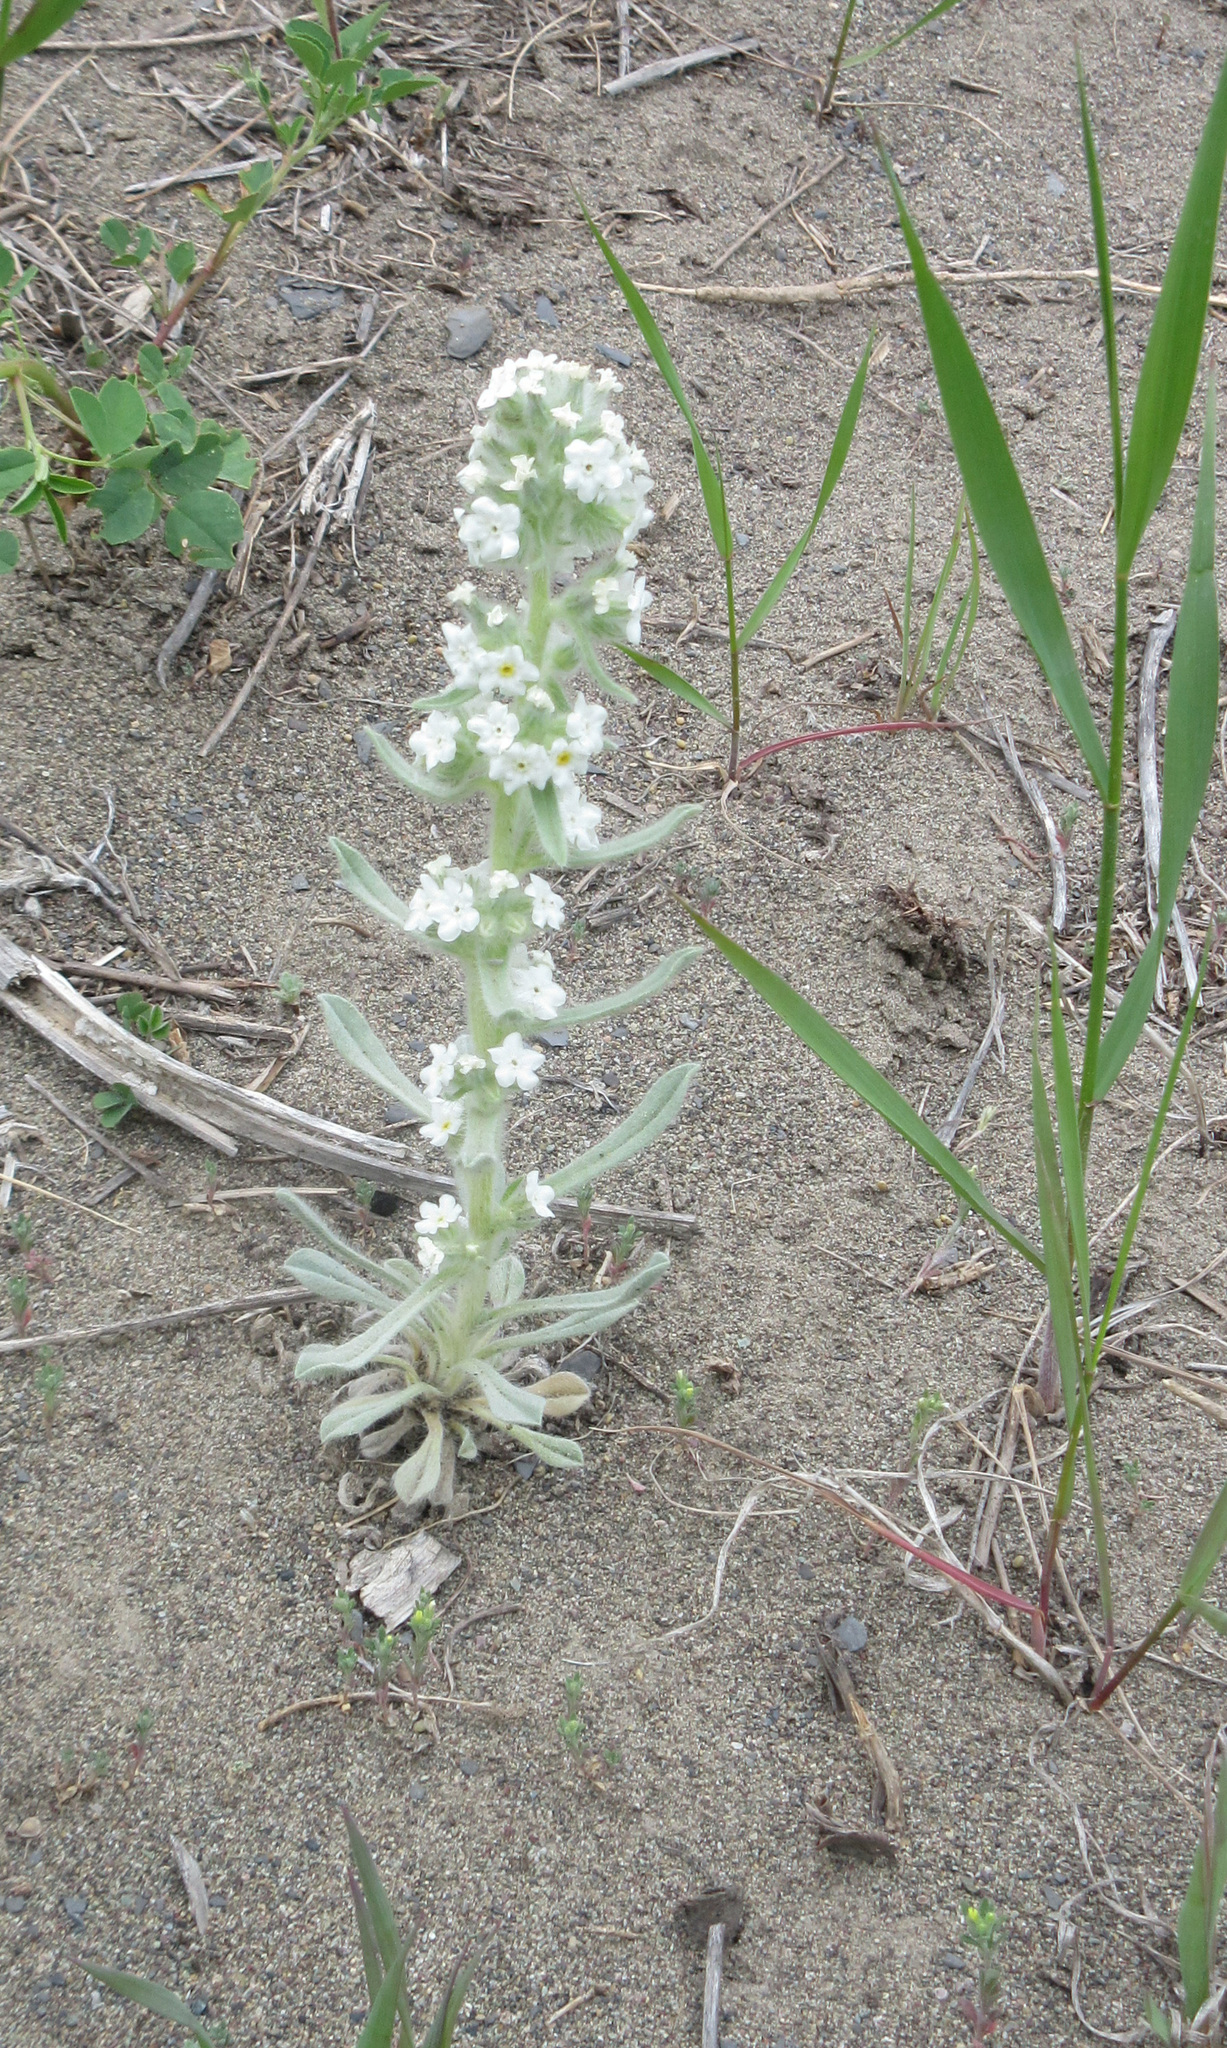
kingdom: Plantae
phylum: Tracheophyta
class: Magnoliopsida
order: Boraginales
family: Boraginaceae
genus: Oreocarya
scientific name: Oreocarya glomerata
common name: Macoun's cryptantha
